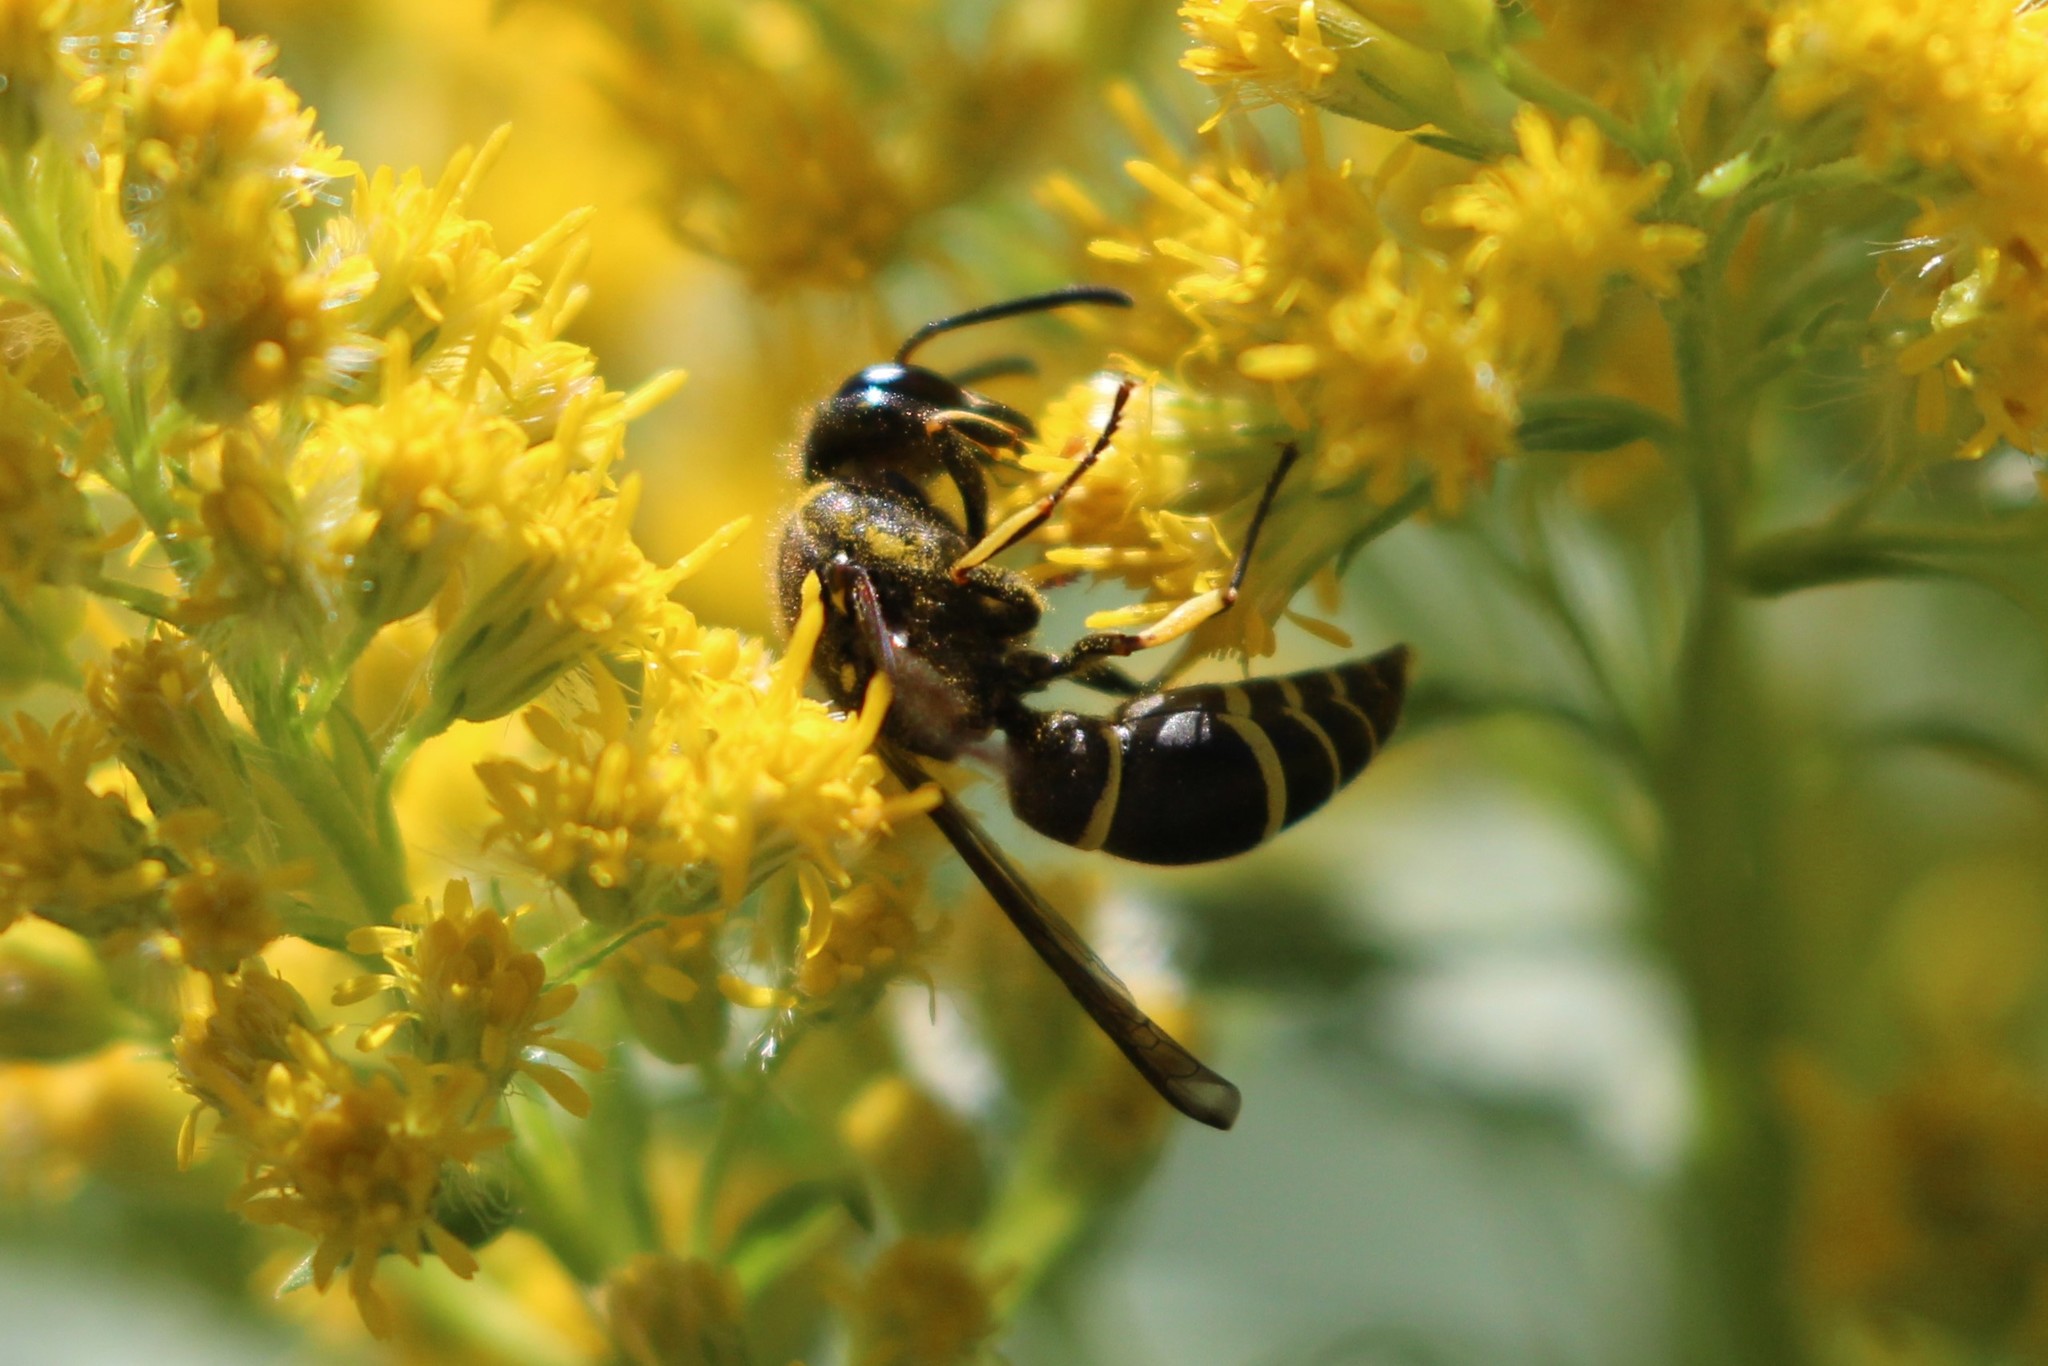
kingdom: Animalia
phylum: Arthropoda
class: Insecta
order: Hymenoptera
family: Vespidae
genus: Ancistrocerus
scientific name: Ancistrocerus
